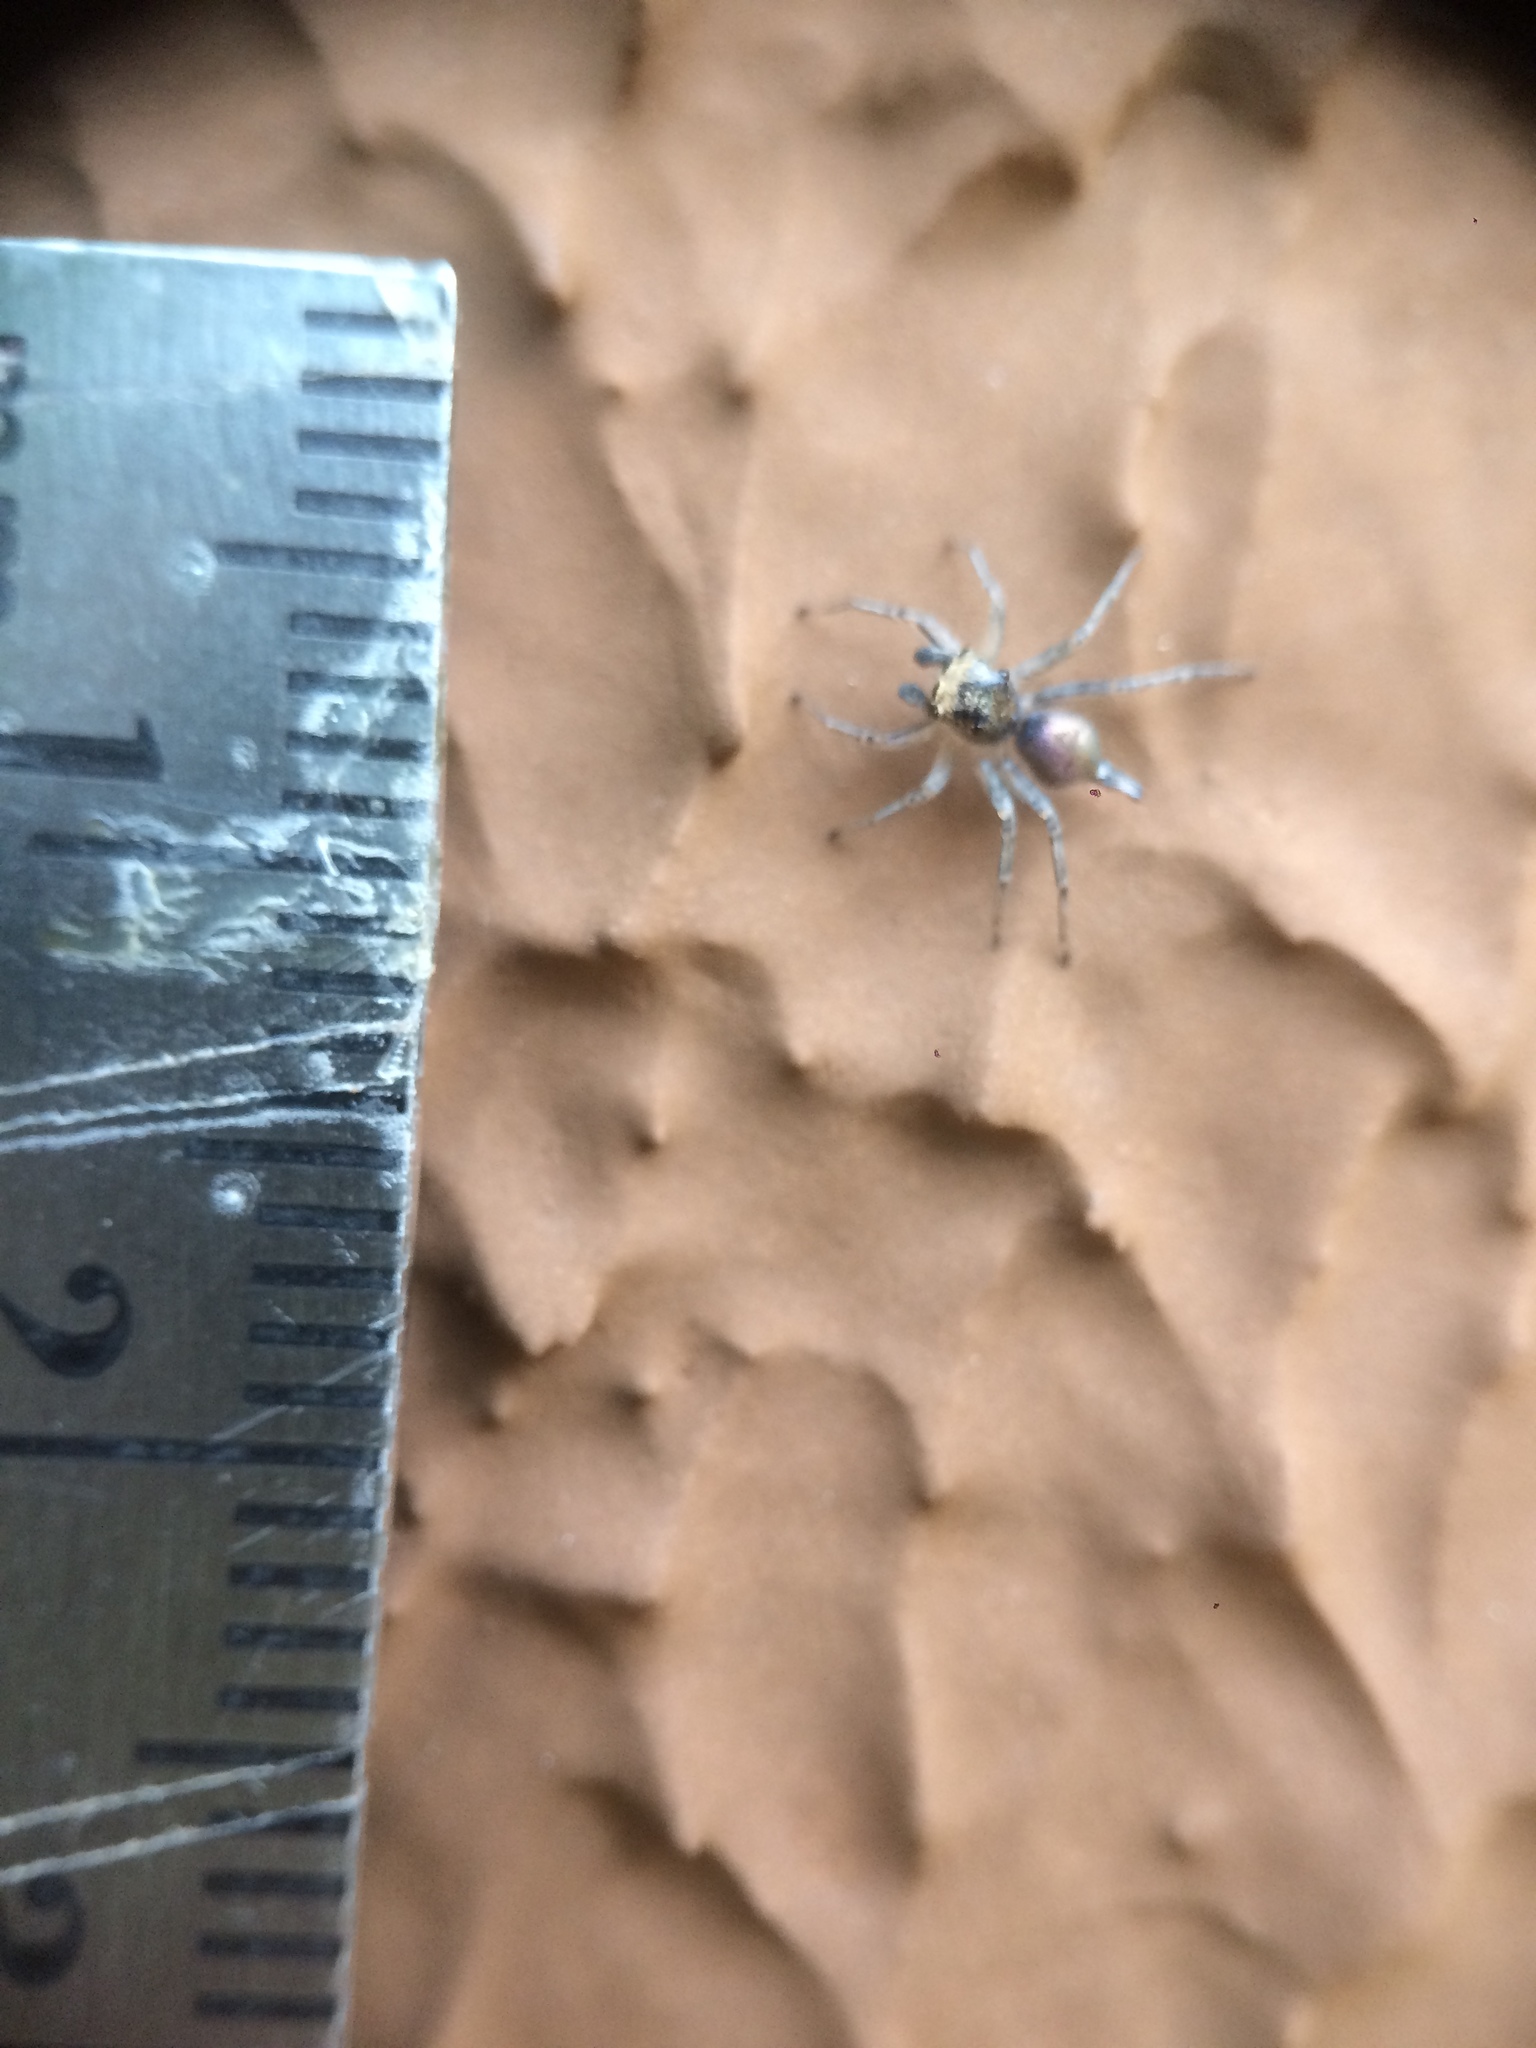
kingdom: Animalia
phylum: Arthropoda
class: Arachnida
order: Araneae
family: Salticidae
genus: Maeota
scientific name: Maeota dichrura
